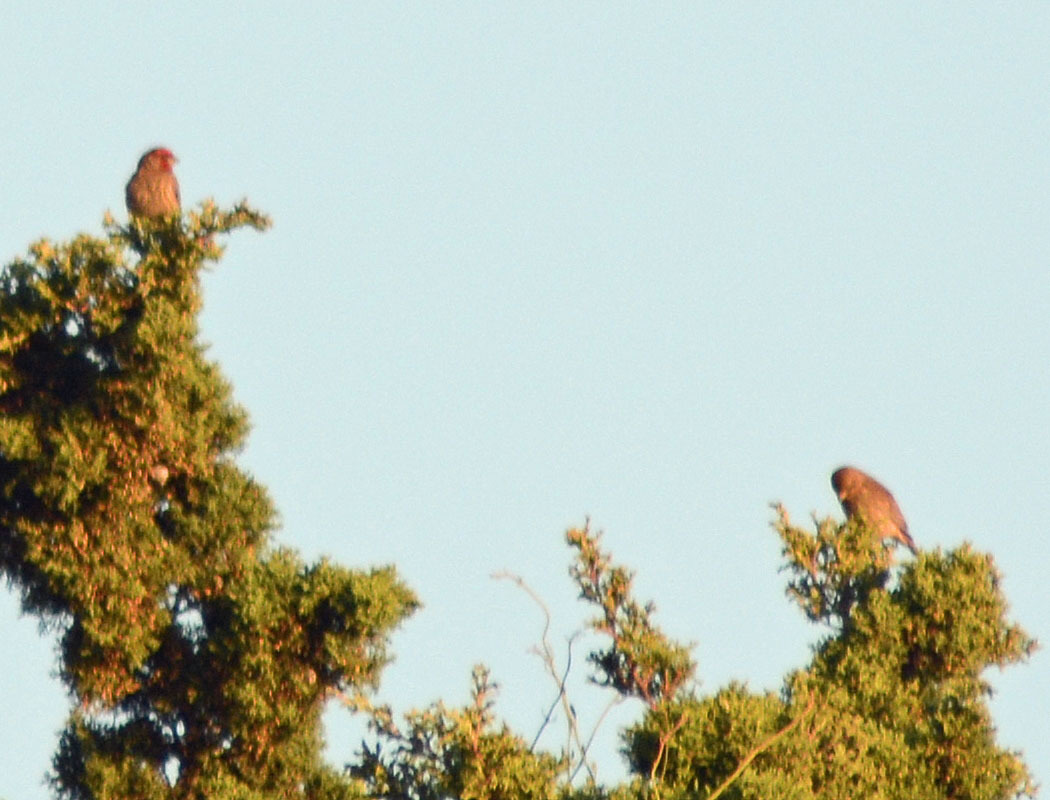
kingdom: Animalia
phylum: Chordata
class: Aves
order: Passeriformes
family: Fringillidae
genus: Haemorhous
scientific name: Haemorhous mexicanus
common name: House finch
